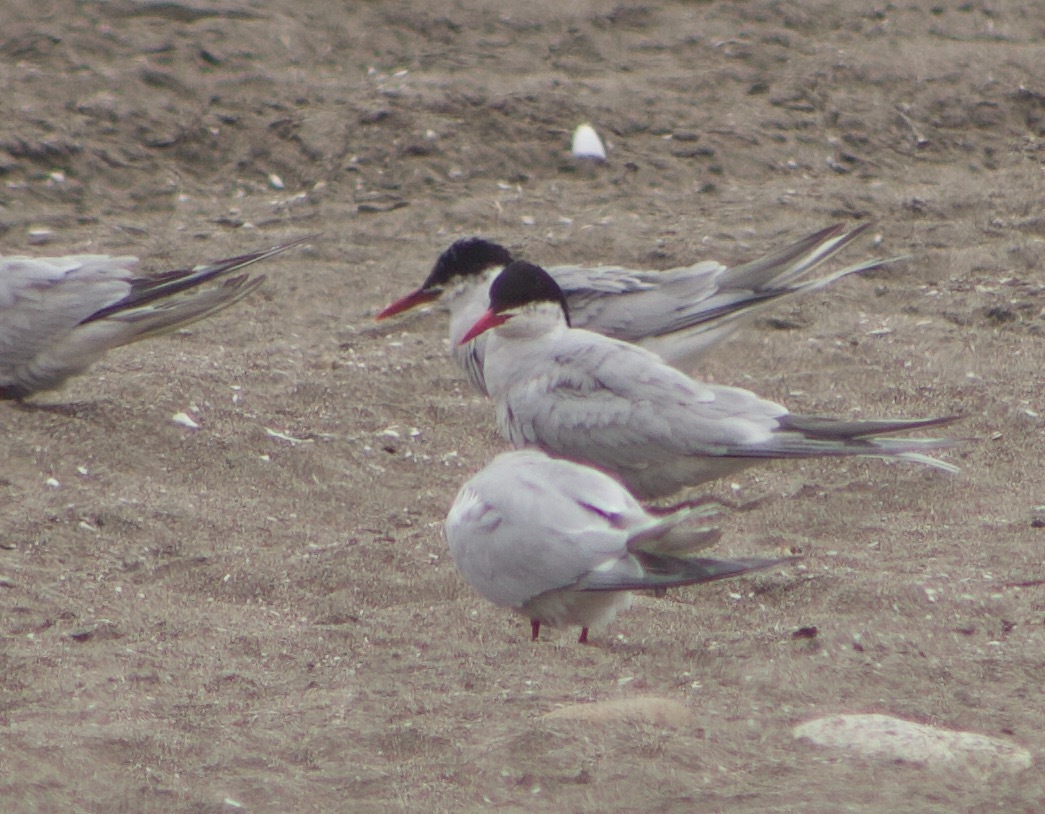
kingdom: Animalia
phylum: Chordata
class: Aves
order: Charadriiformes
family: Laridae
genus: Sterna
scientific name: Sterna hirundinacea
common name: South american tern
